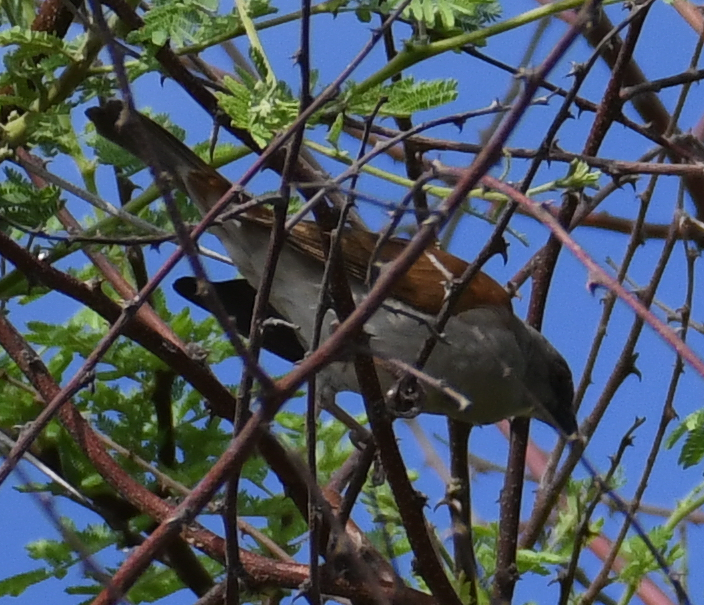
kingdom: Animalia
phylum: Chordata
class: Aves
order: Passeriformes
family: Passeridae
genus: Passer
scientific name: Passer diffusus
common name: Southern grey-headed sparrow
